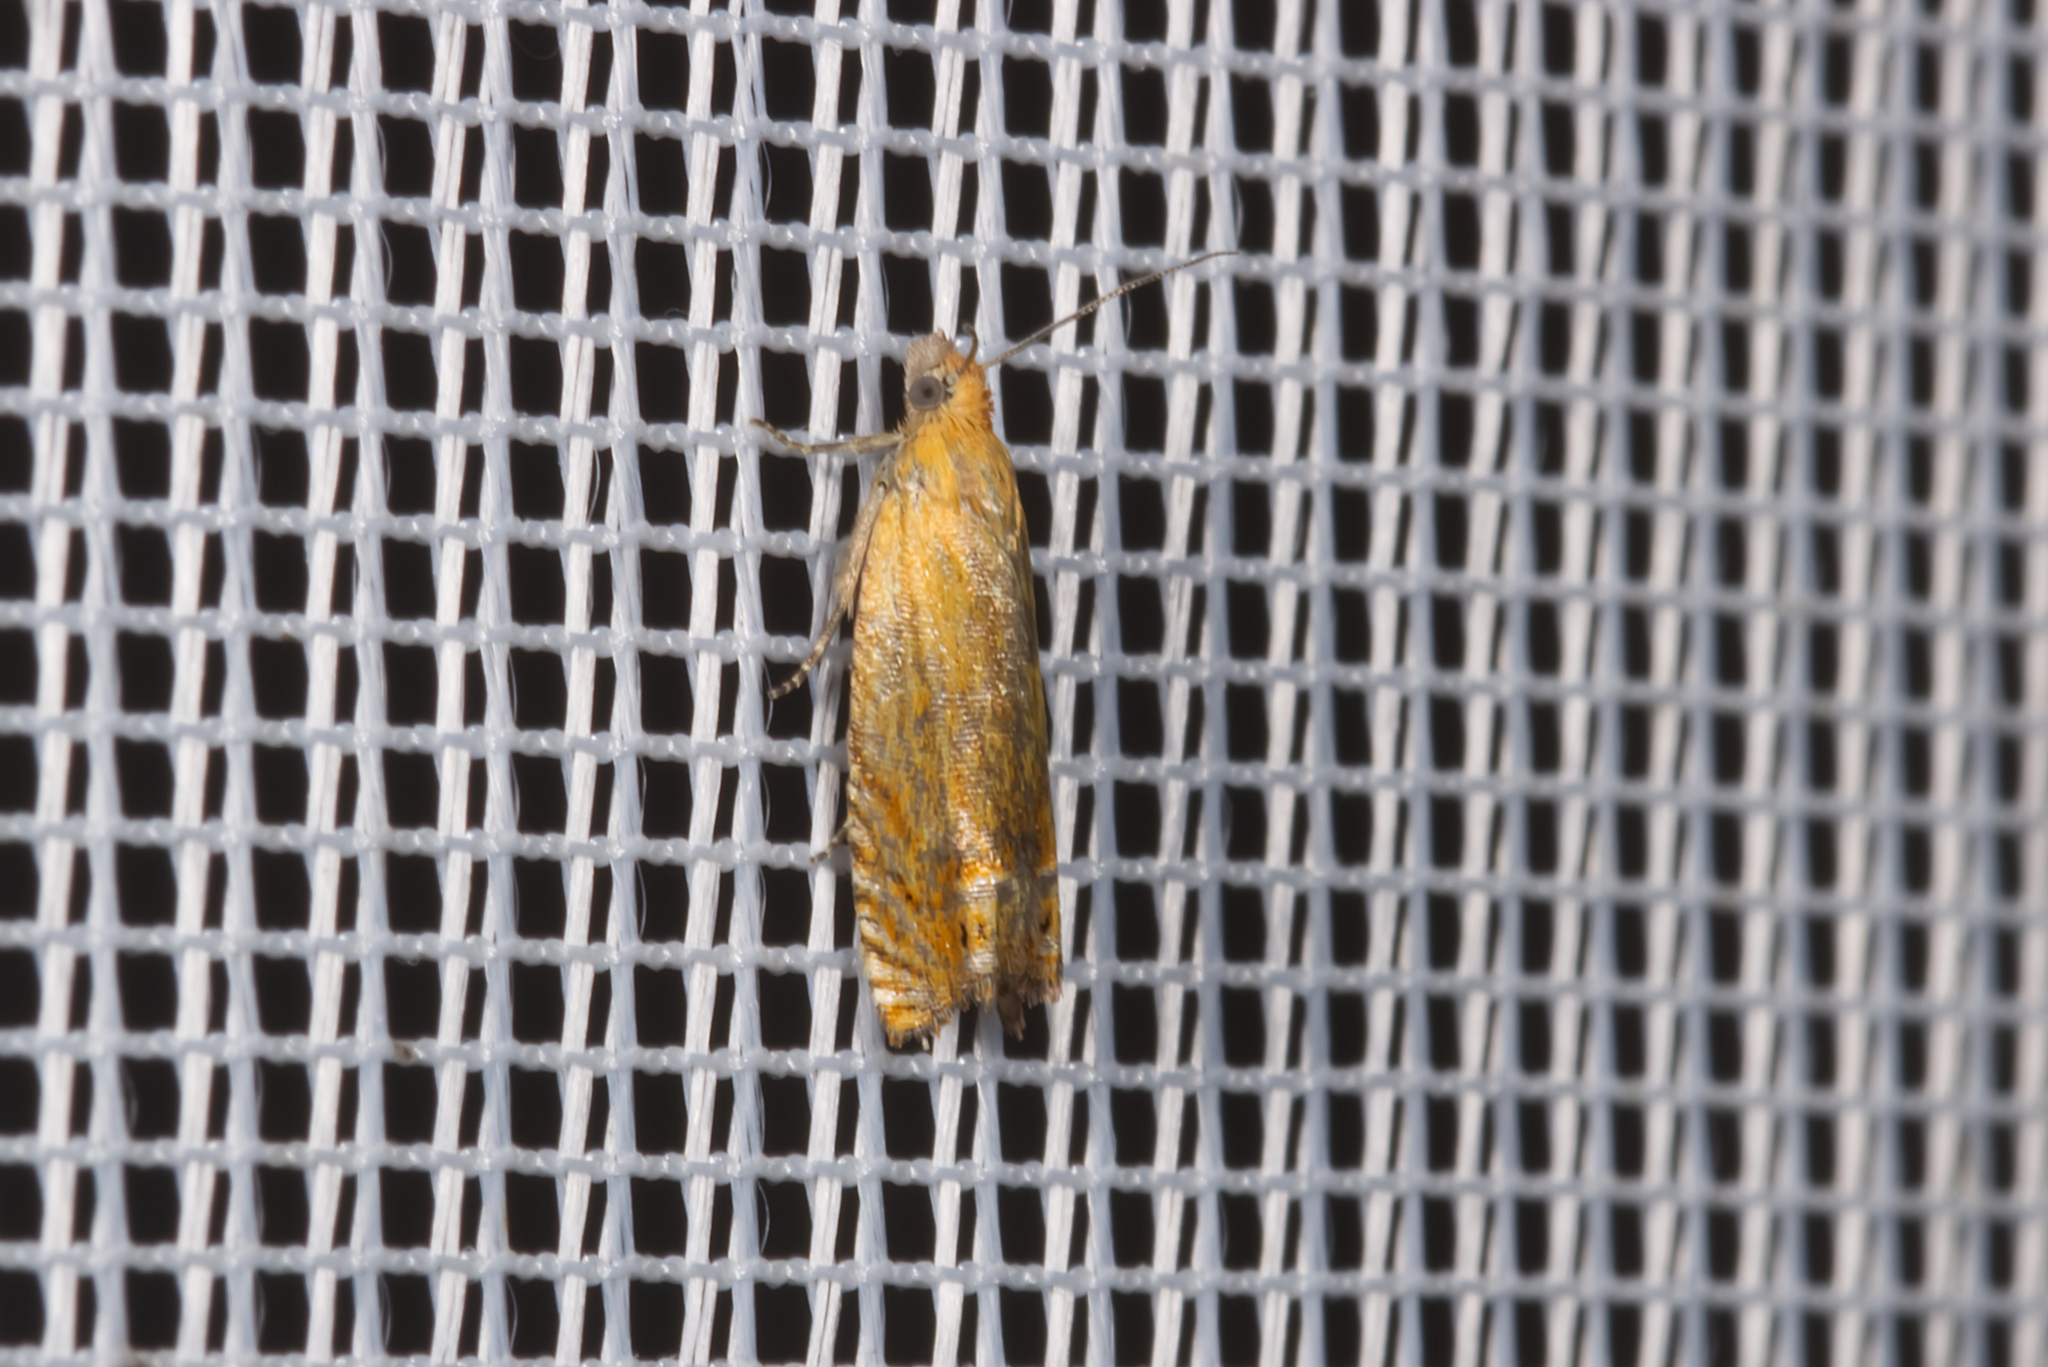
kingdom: Animalia
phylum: Arthropoda
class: Insecta
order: Lepidoptera
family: Tortricidae
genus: Lathronympha
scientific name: Lathronympha strigana
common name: Red piercer
